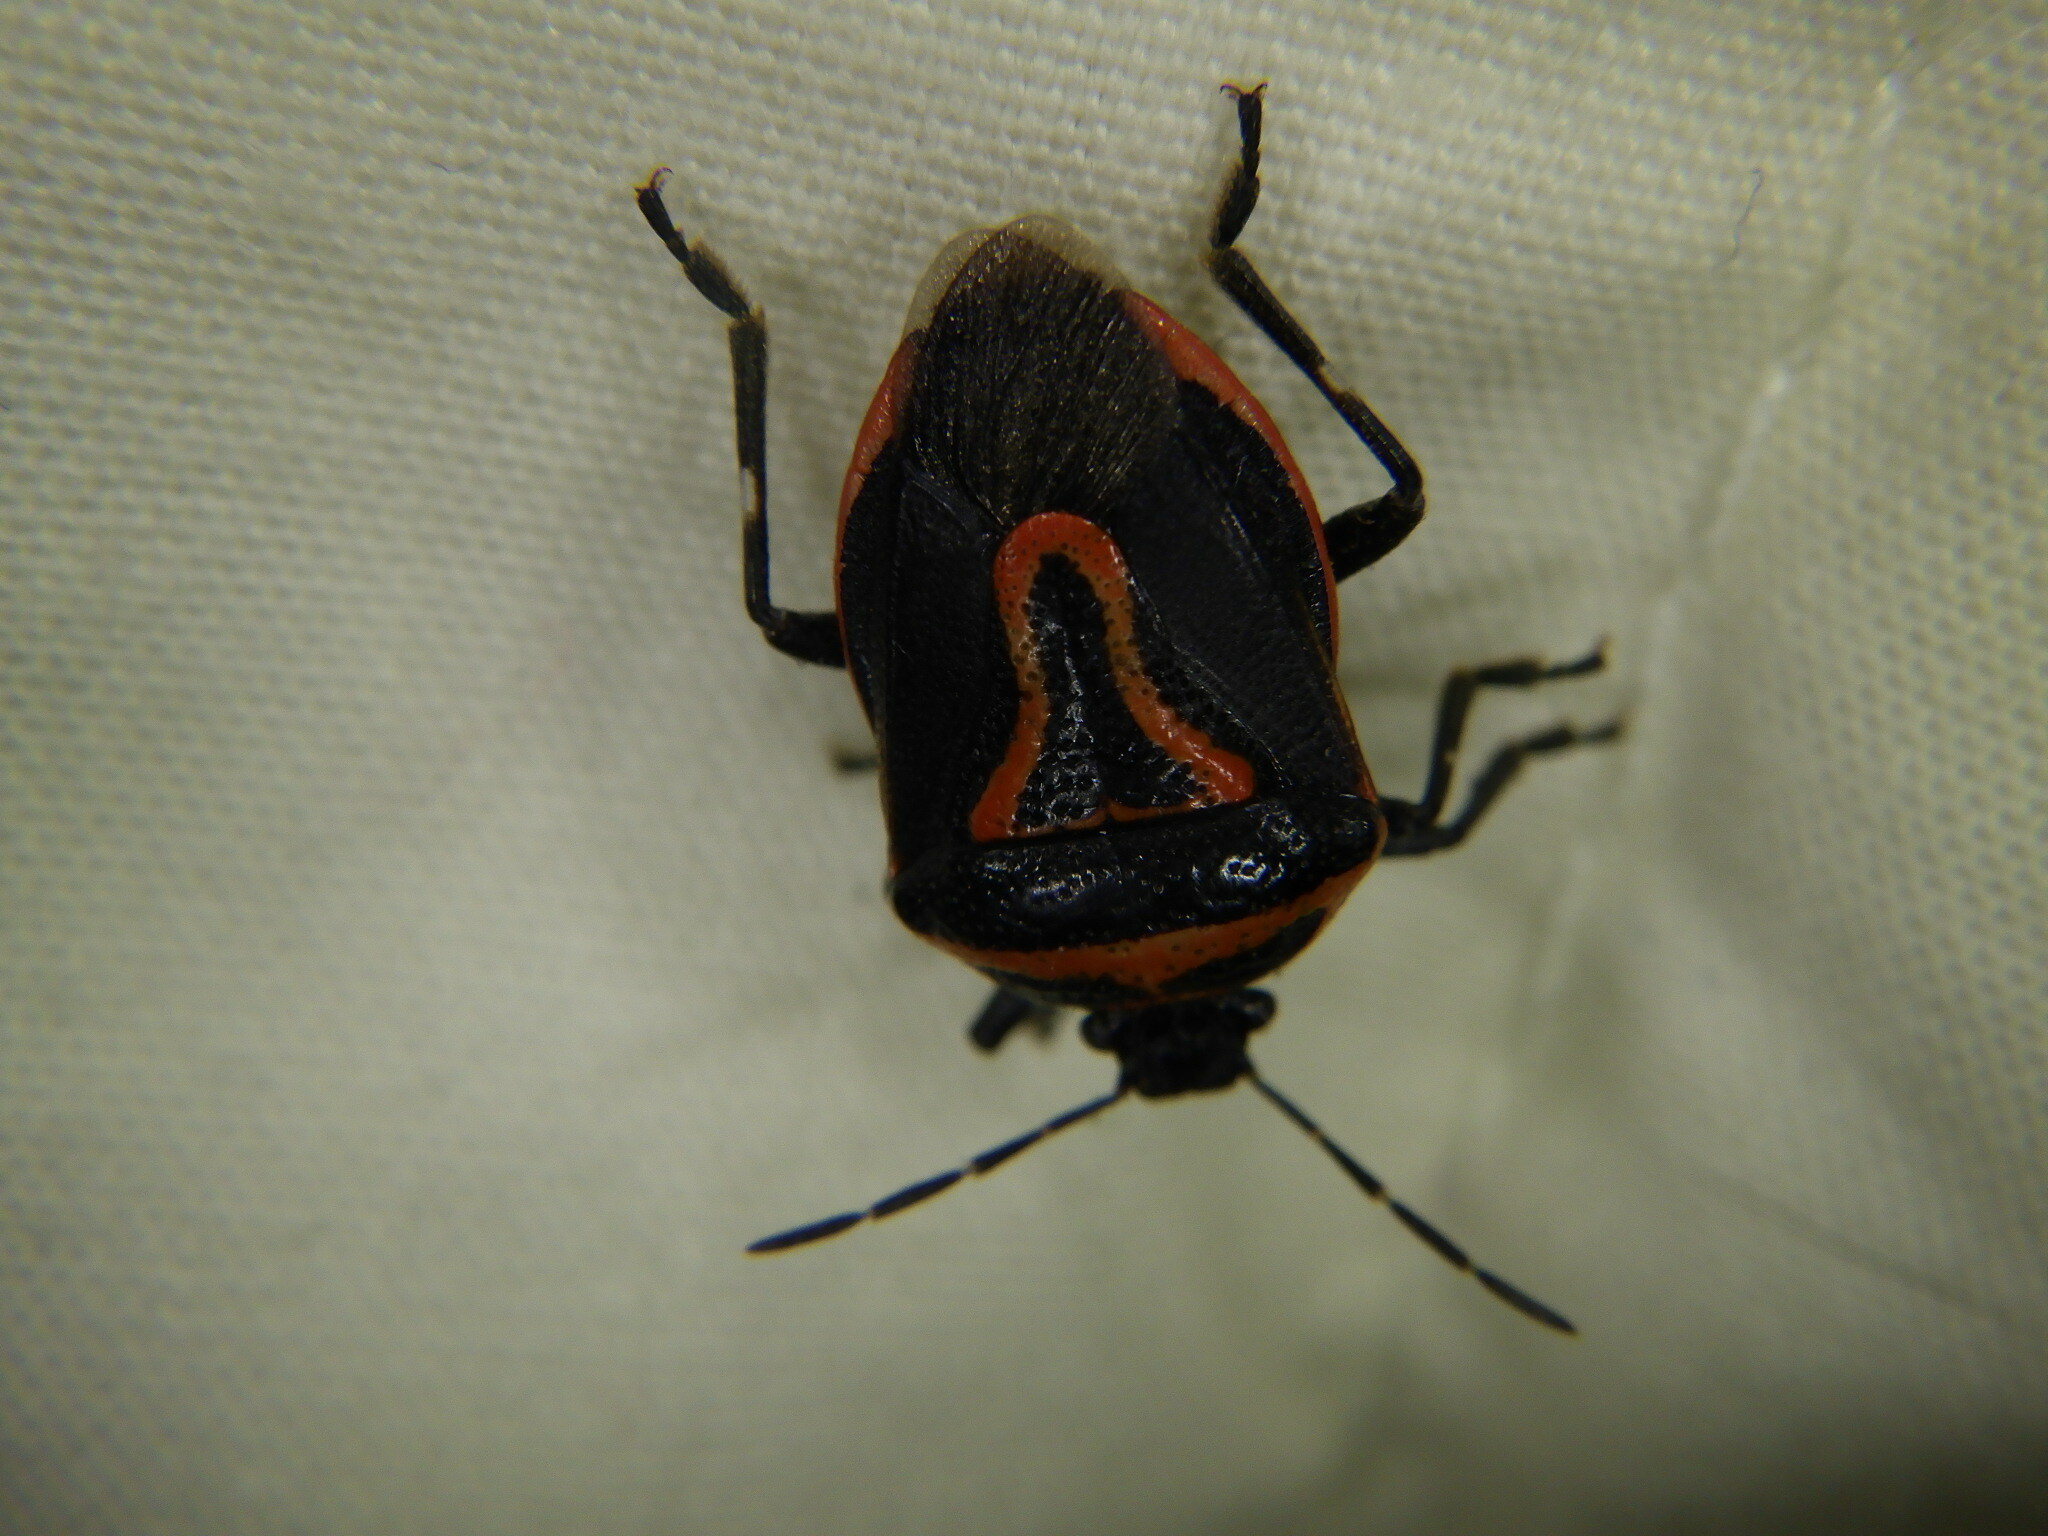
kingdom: Animalia
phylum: Arthropoda
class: Insecta
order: Hemiptera
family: Pentatomidae
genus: Perillus
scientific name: Perillus bioculatus
